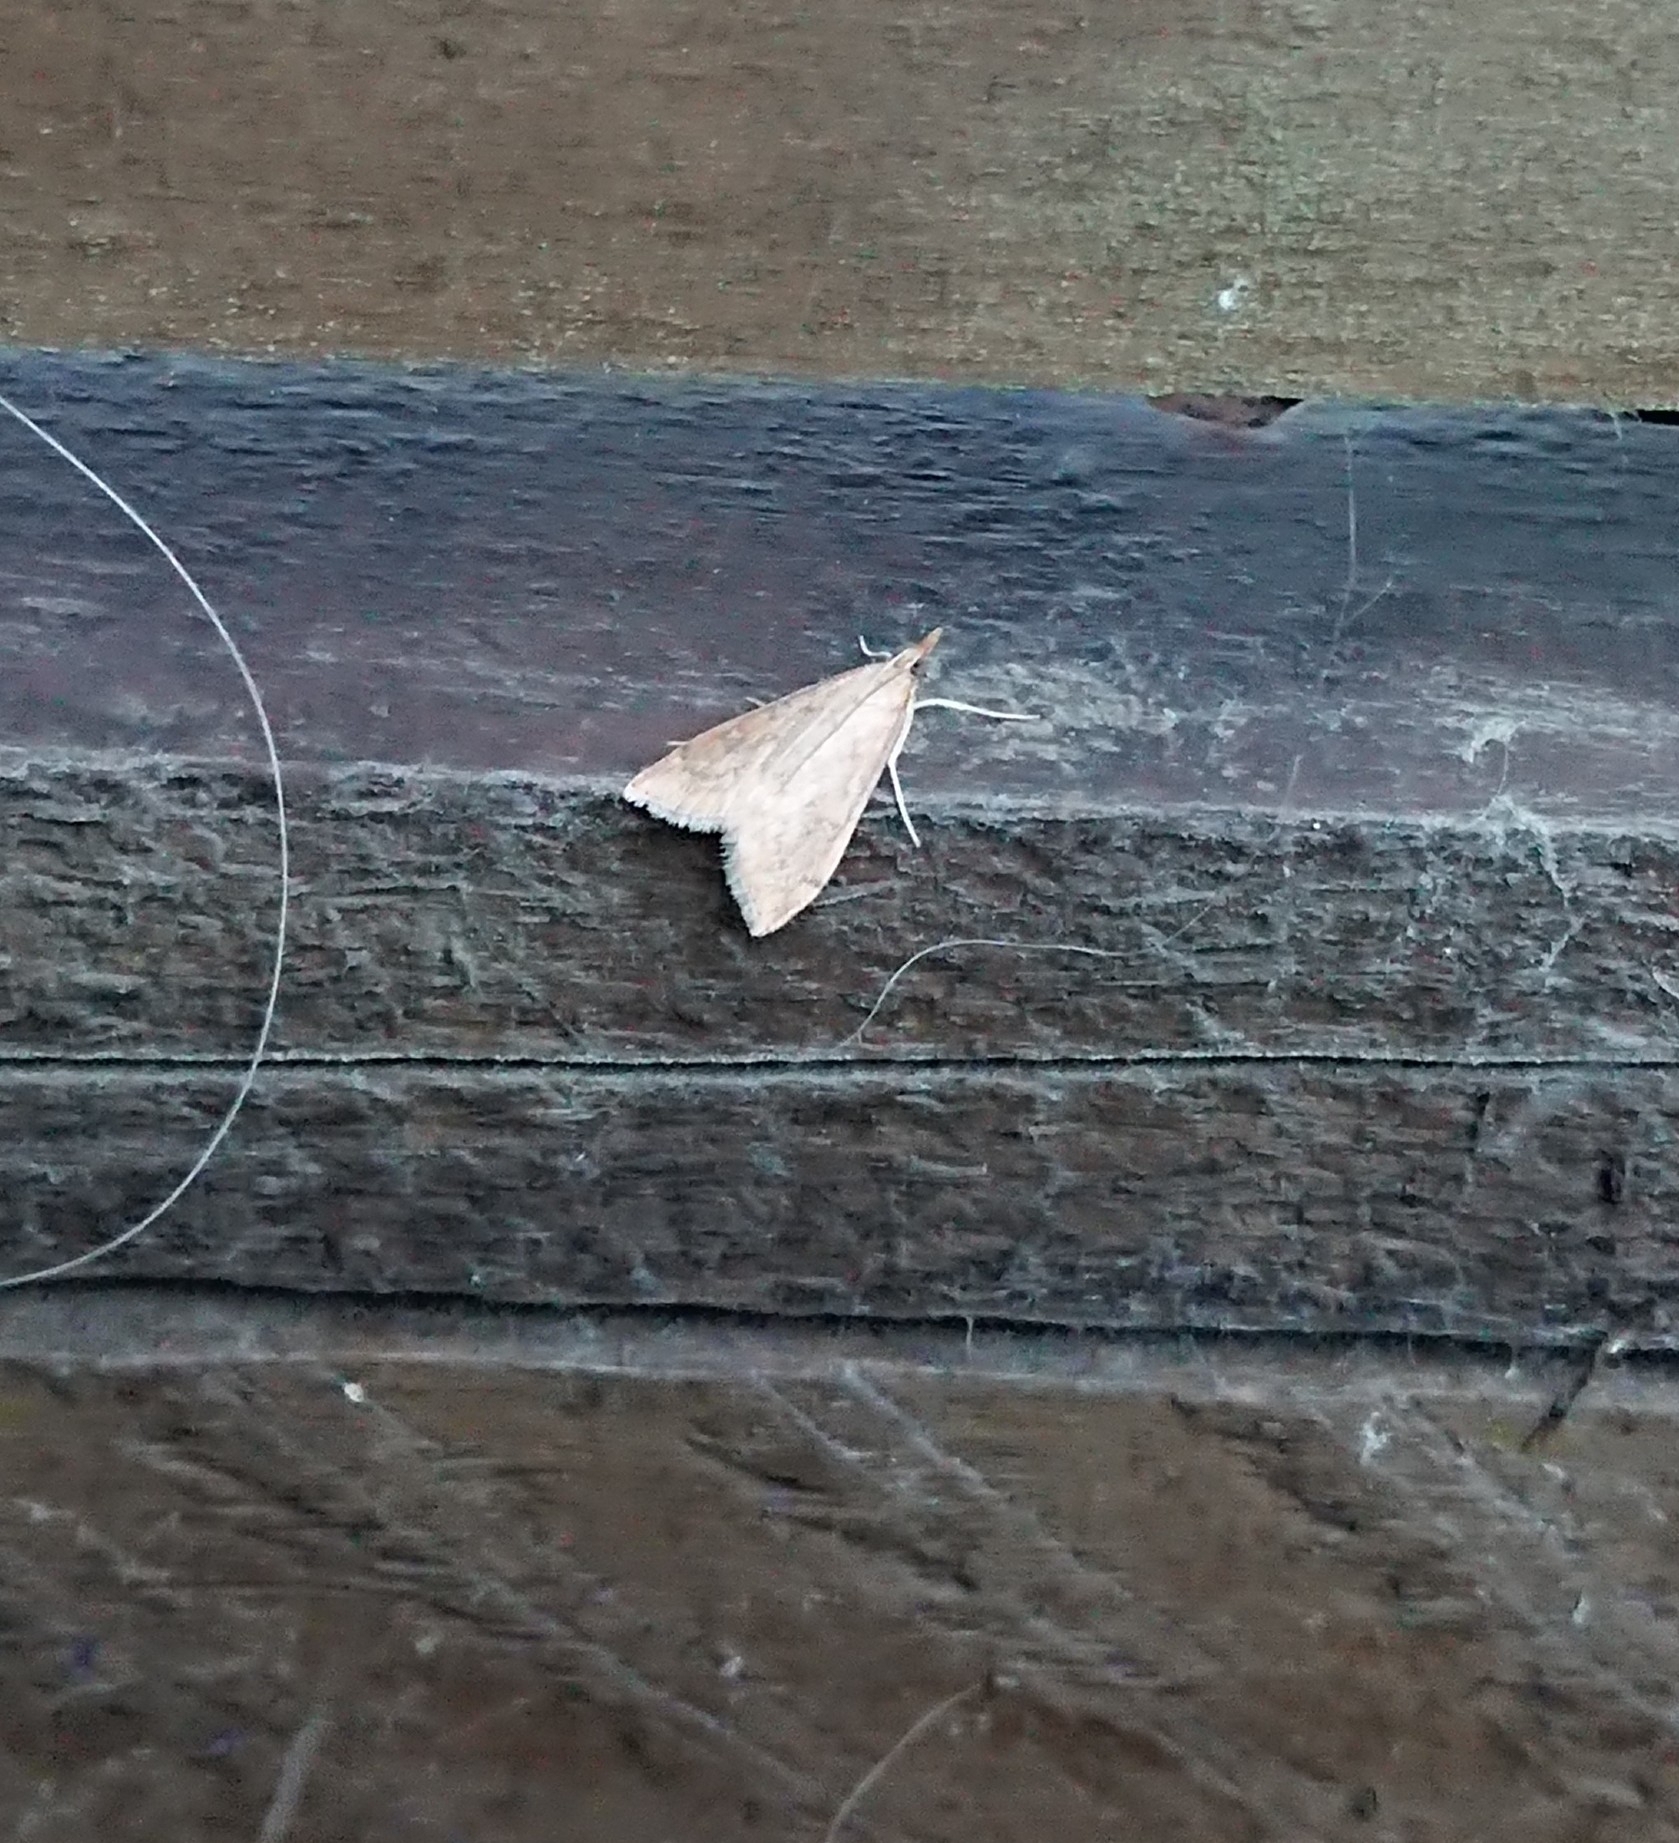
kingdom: Animalia
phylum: Arthropoda
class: Insecta
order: Lepidoptera
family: Crambidae
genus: Udea
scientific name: Udea ferrugalis
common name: Rusty dot
